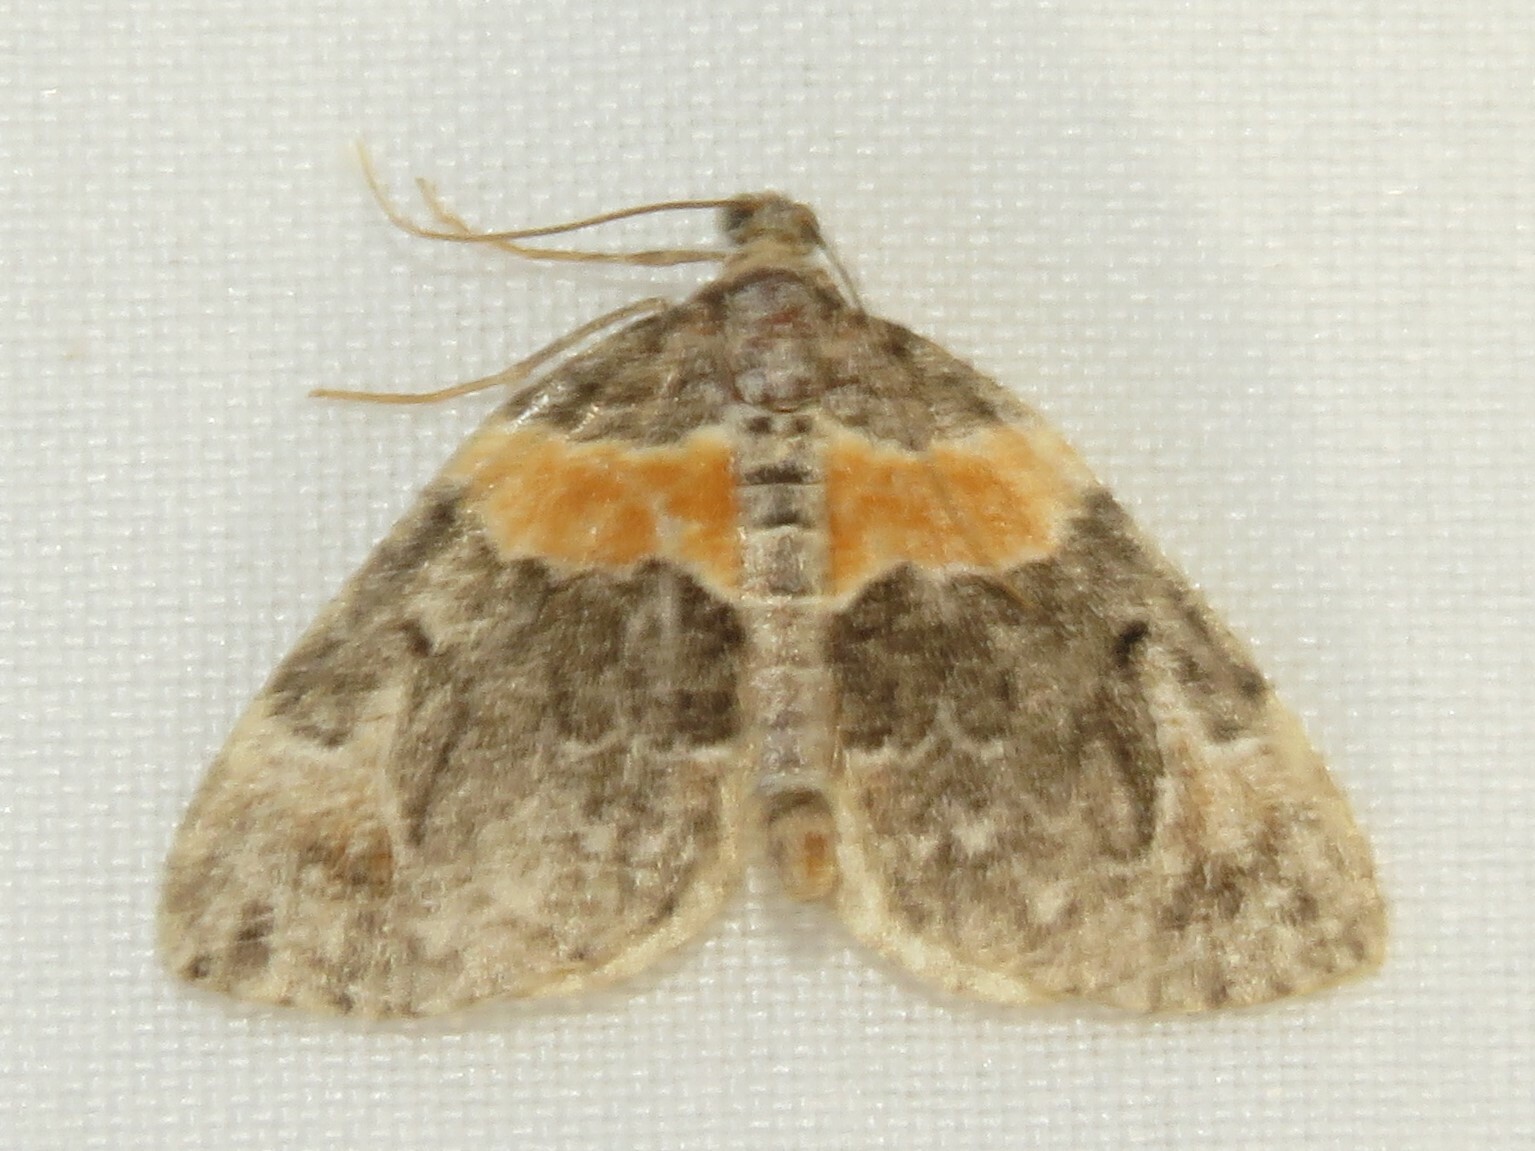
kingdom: Animalia
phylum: Arthropoda
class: Insecta
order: Lepidoptera
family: Geometridae
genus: Dysstroma
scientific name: Dysstroma hersiliata
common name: Orange-barred carpet
